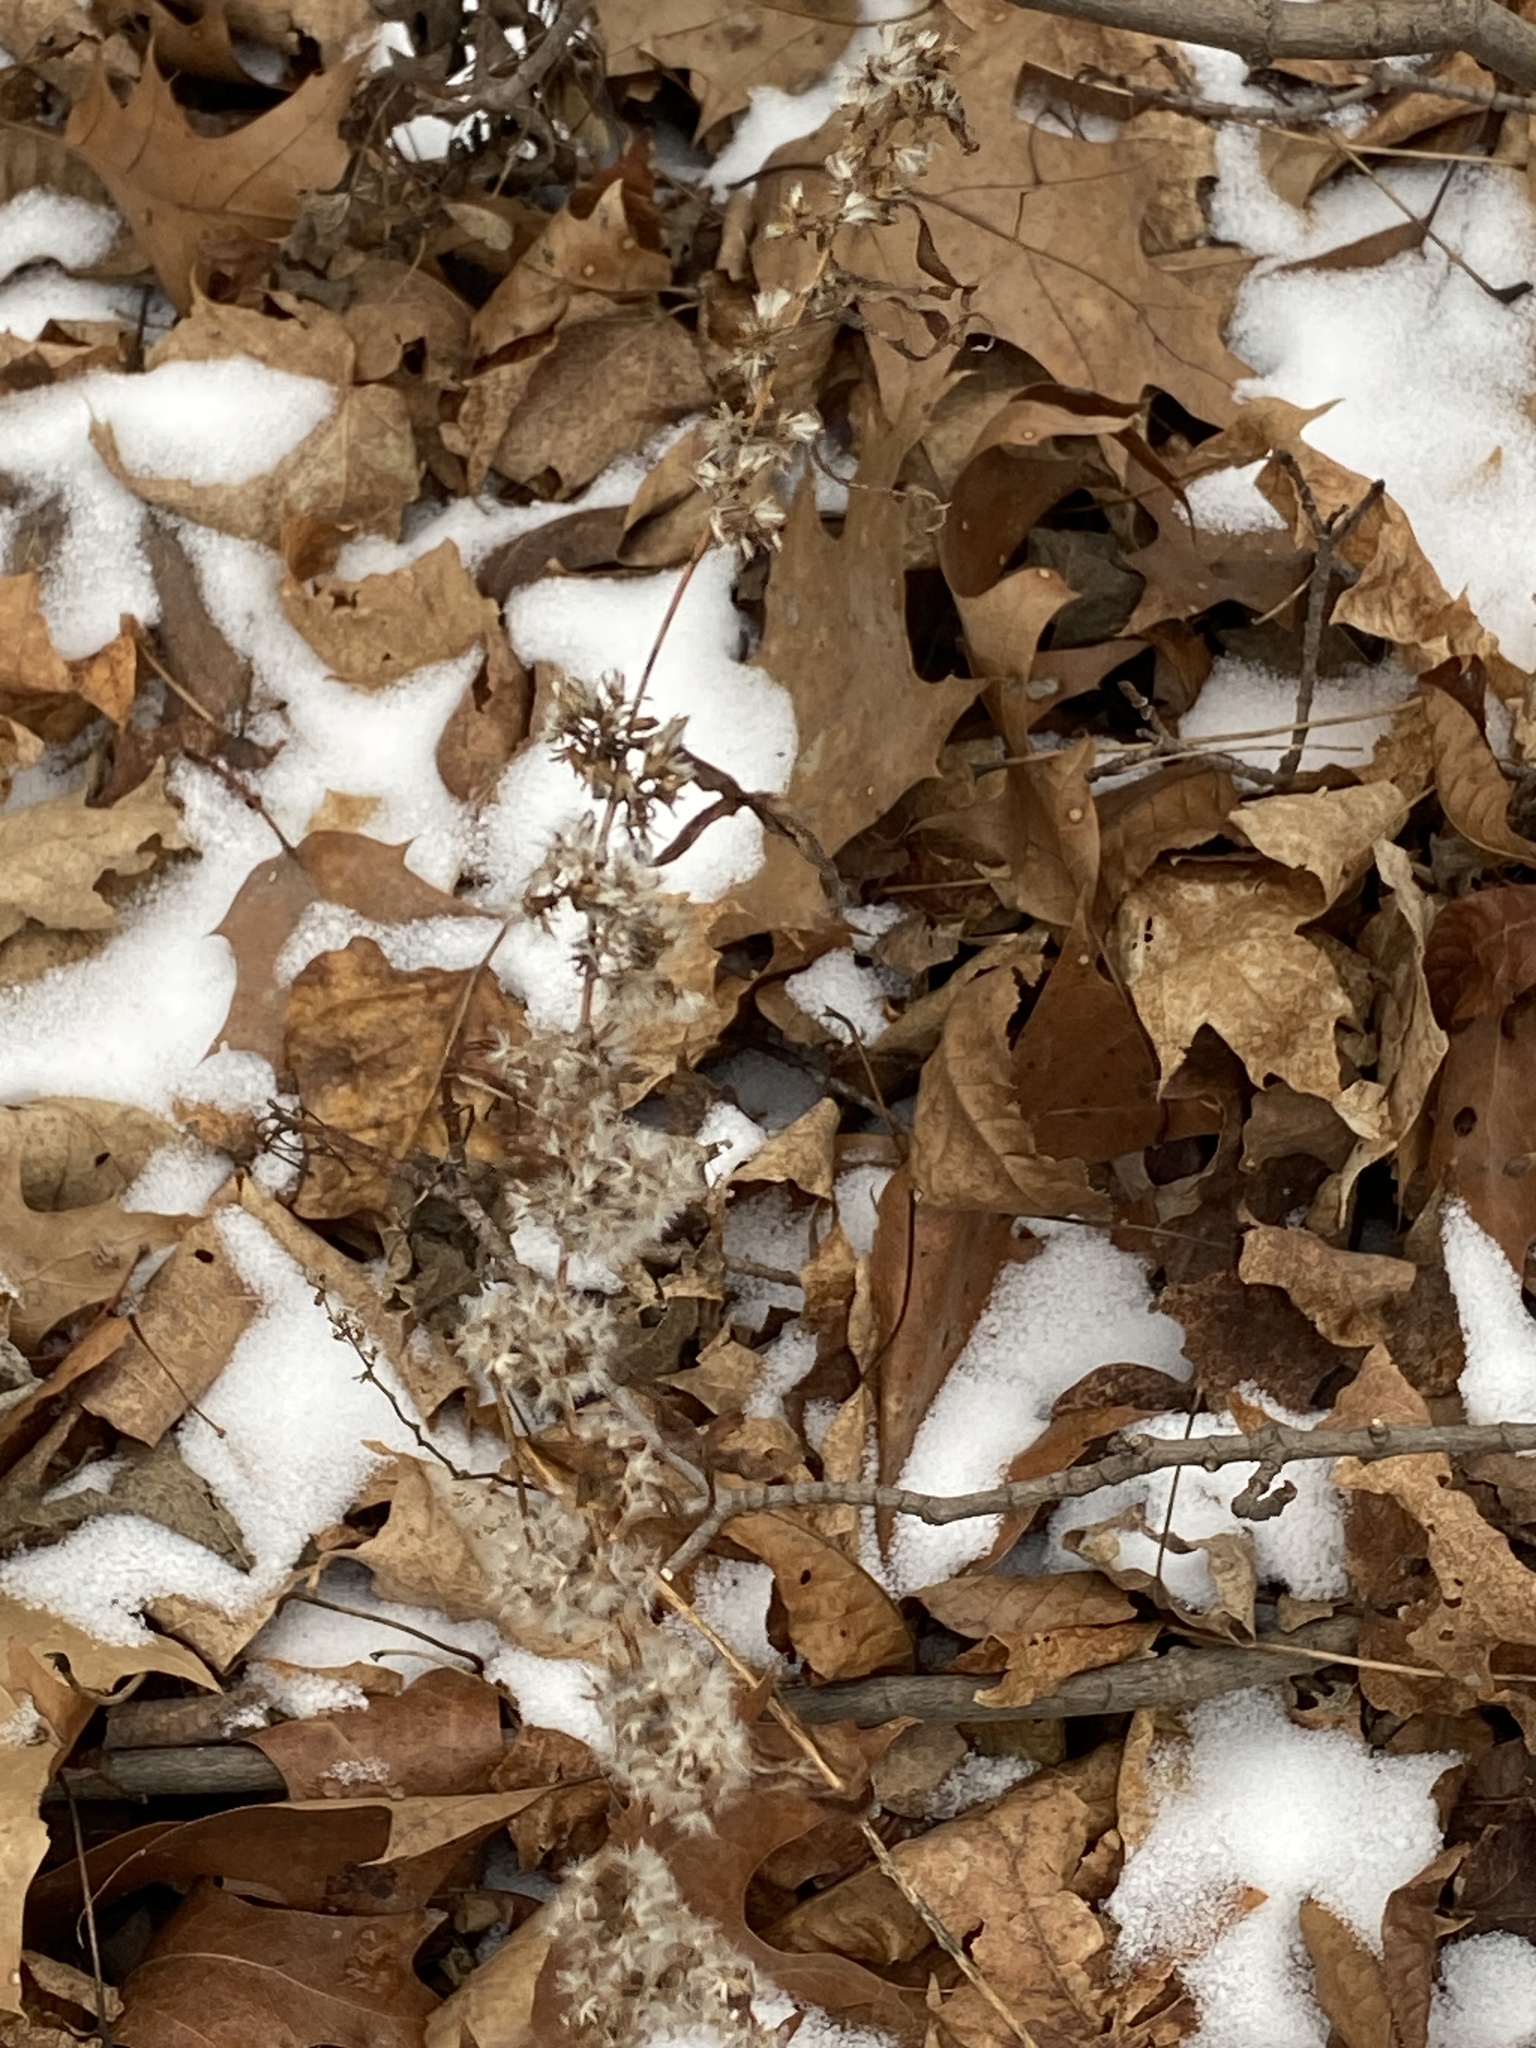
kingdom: Plantae
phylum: Tracheophyta
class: Magnoliopsida
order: Asterales
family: Asteraceae
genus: Solidago
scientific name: Solidago caesia
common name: Woodland goldenrod
